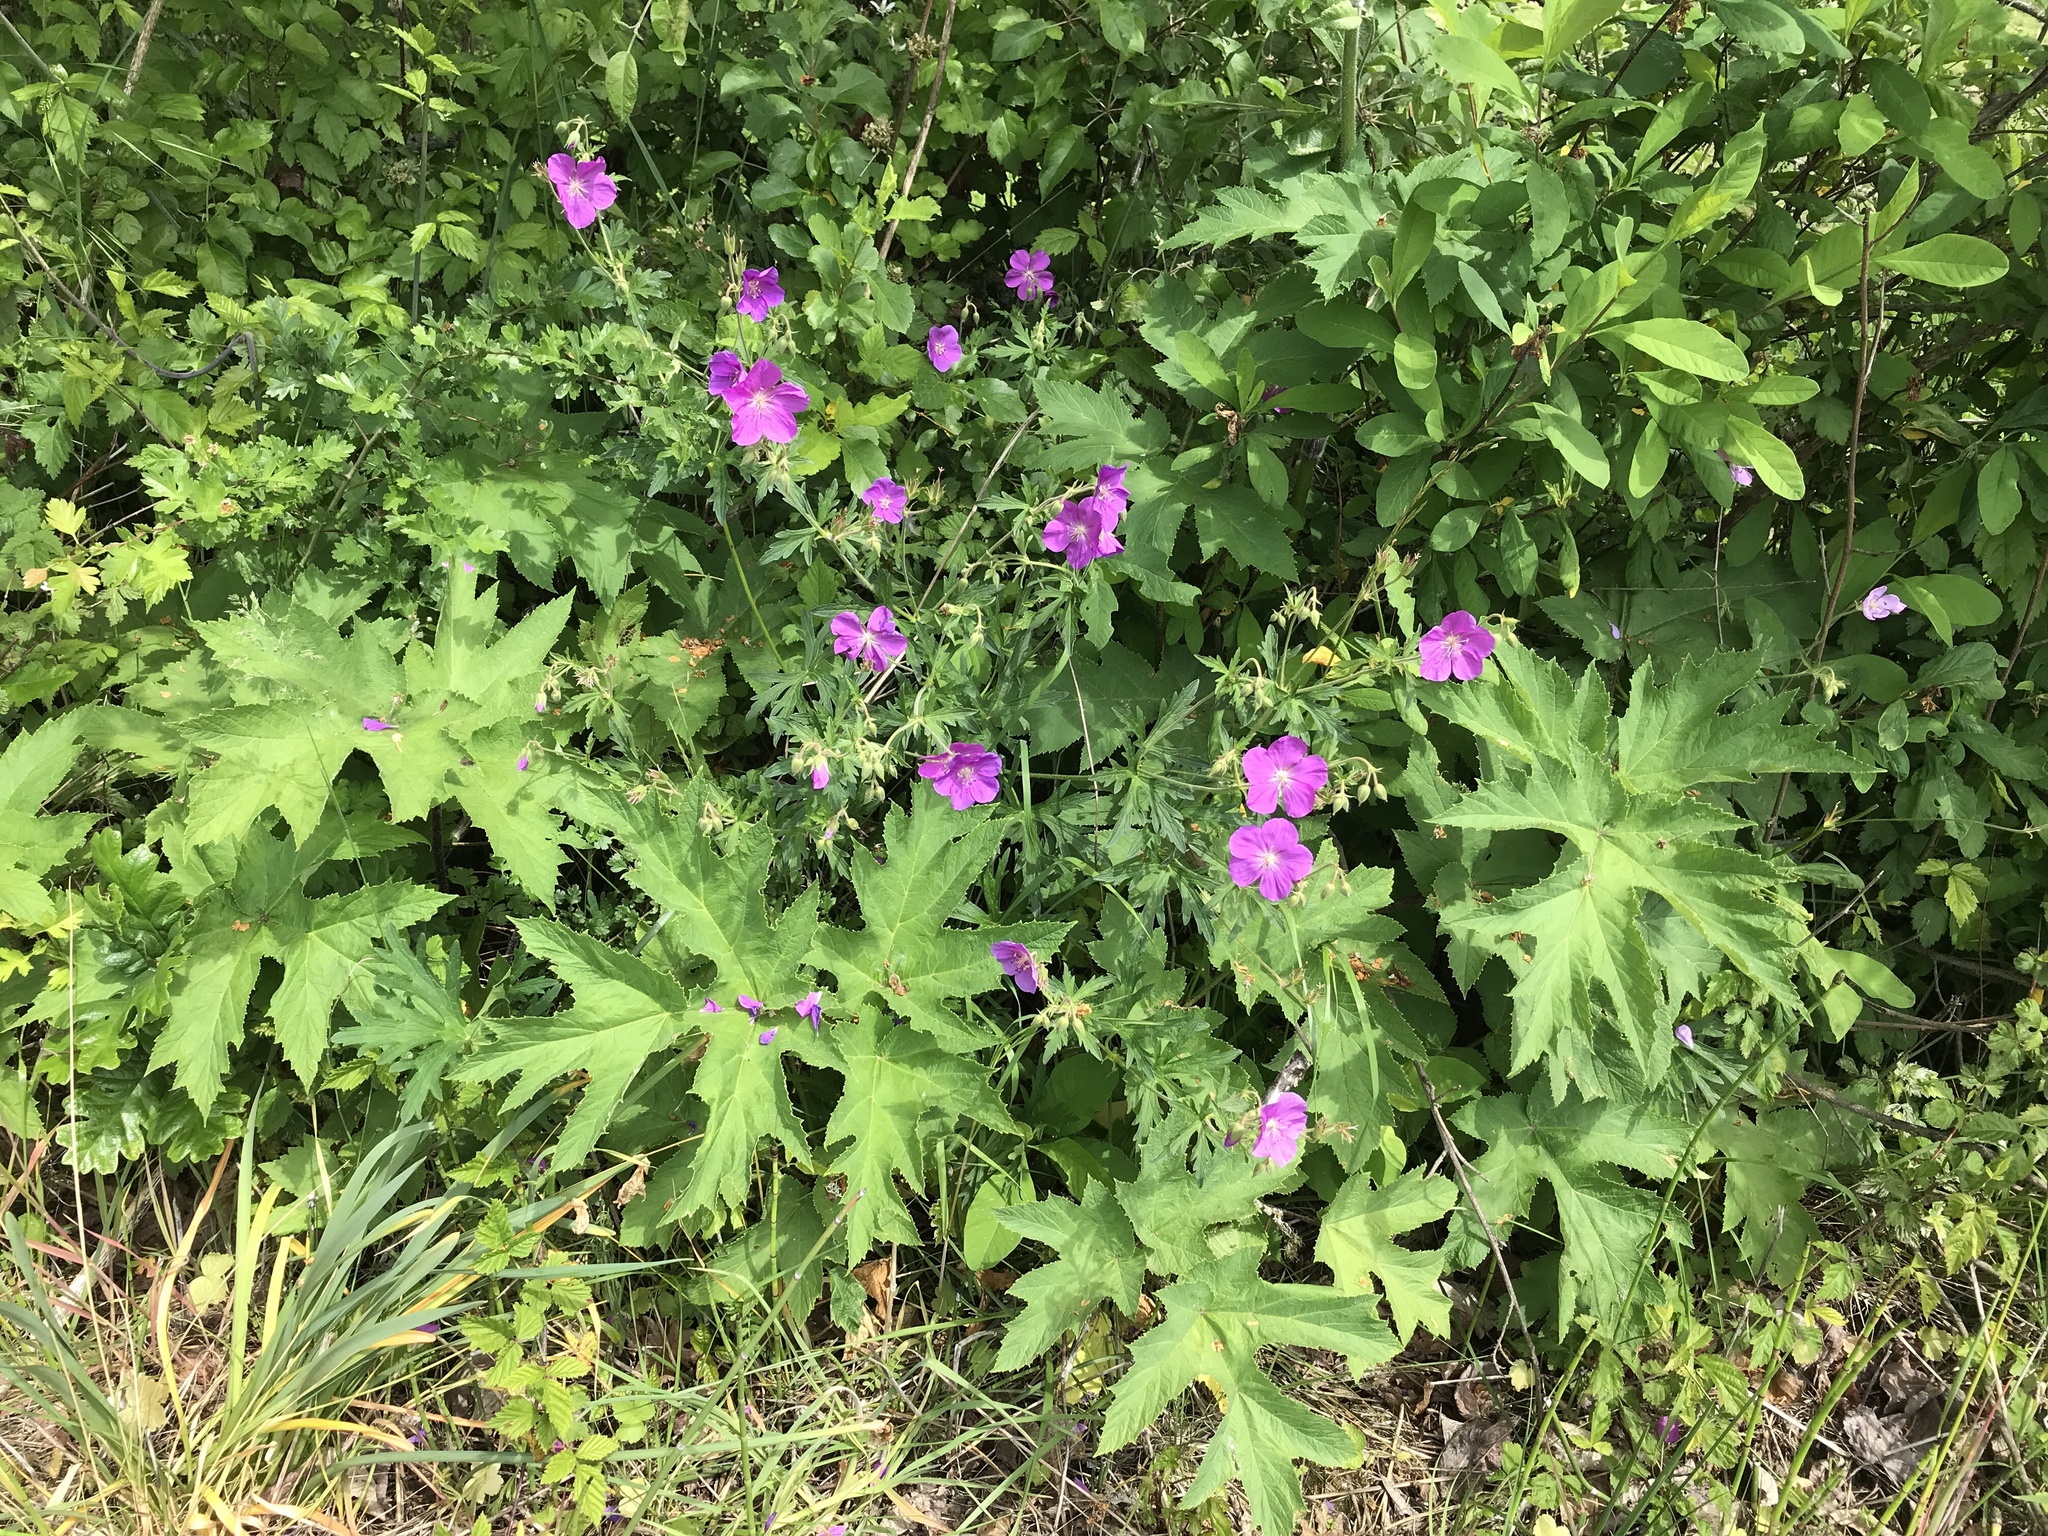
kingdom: Plantae
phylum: Tracheophyta
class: Magnoliopsida
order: Geraniales
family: Geraniaceae
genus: Geranium
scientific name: Geranium oreganum
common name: Oregon crane's-bill
